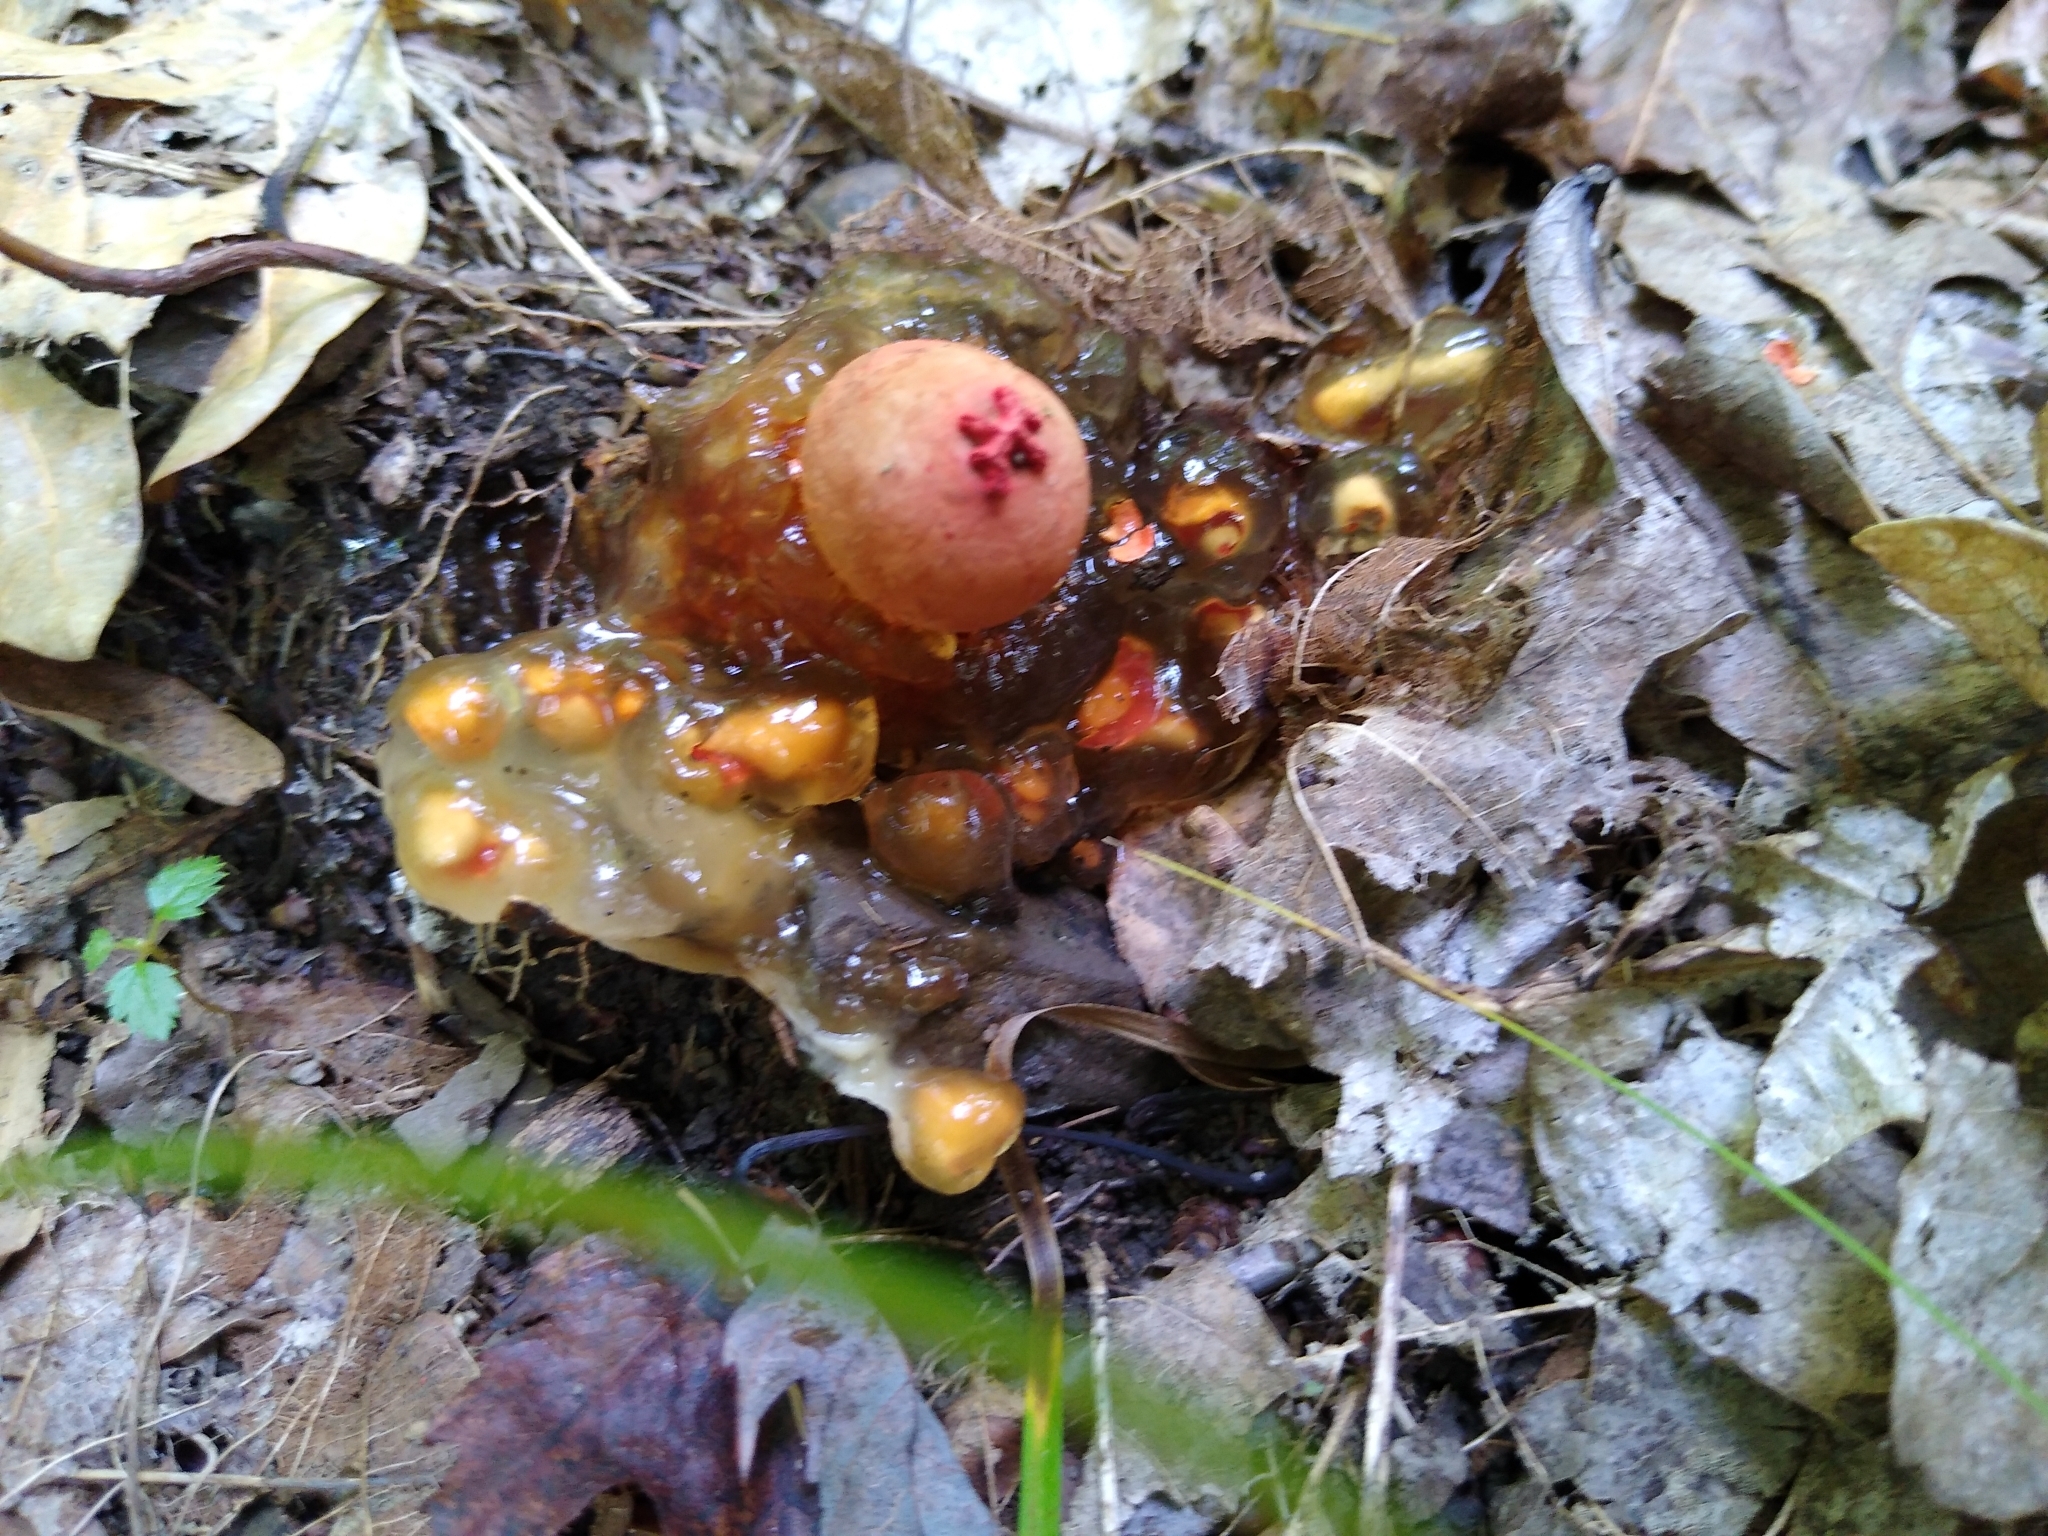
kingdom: Fungi
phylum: Basidiomycota
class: Agaricomycetes
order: Boletales
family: Calostomataceae
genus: Calostoma
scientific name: Calostoma cinnabarinum
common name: Stalked puffball-in-aspic
